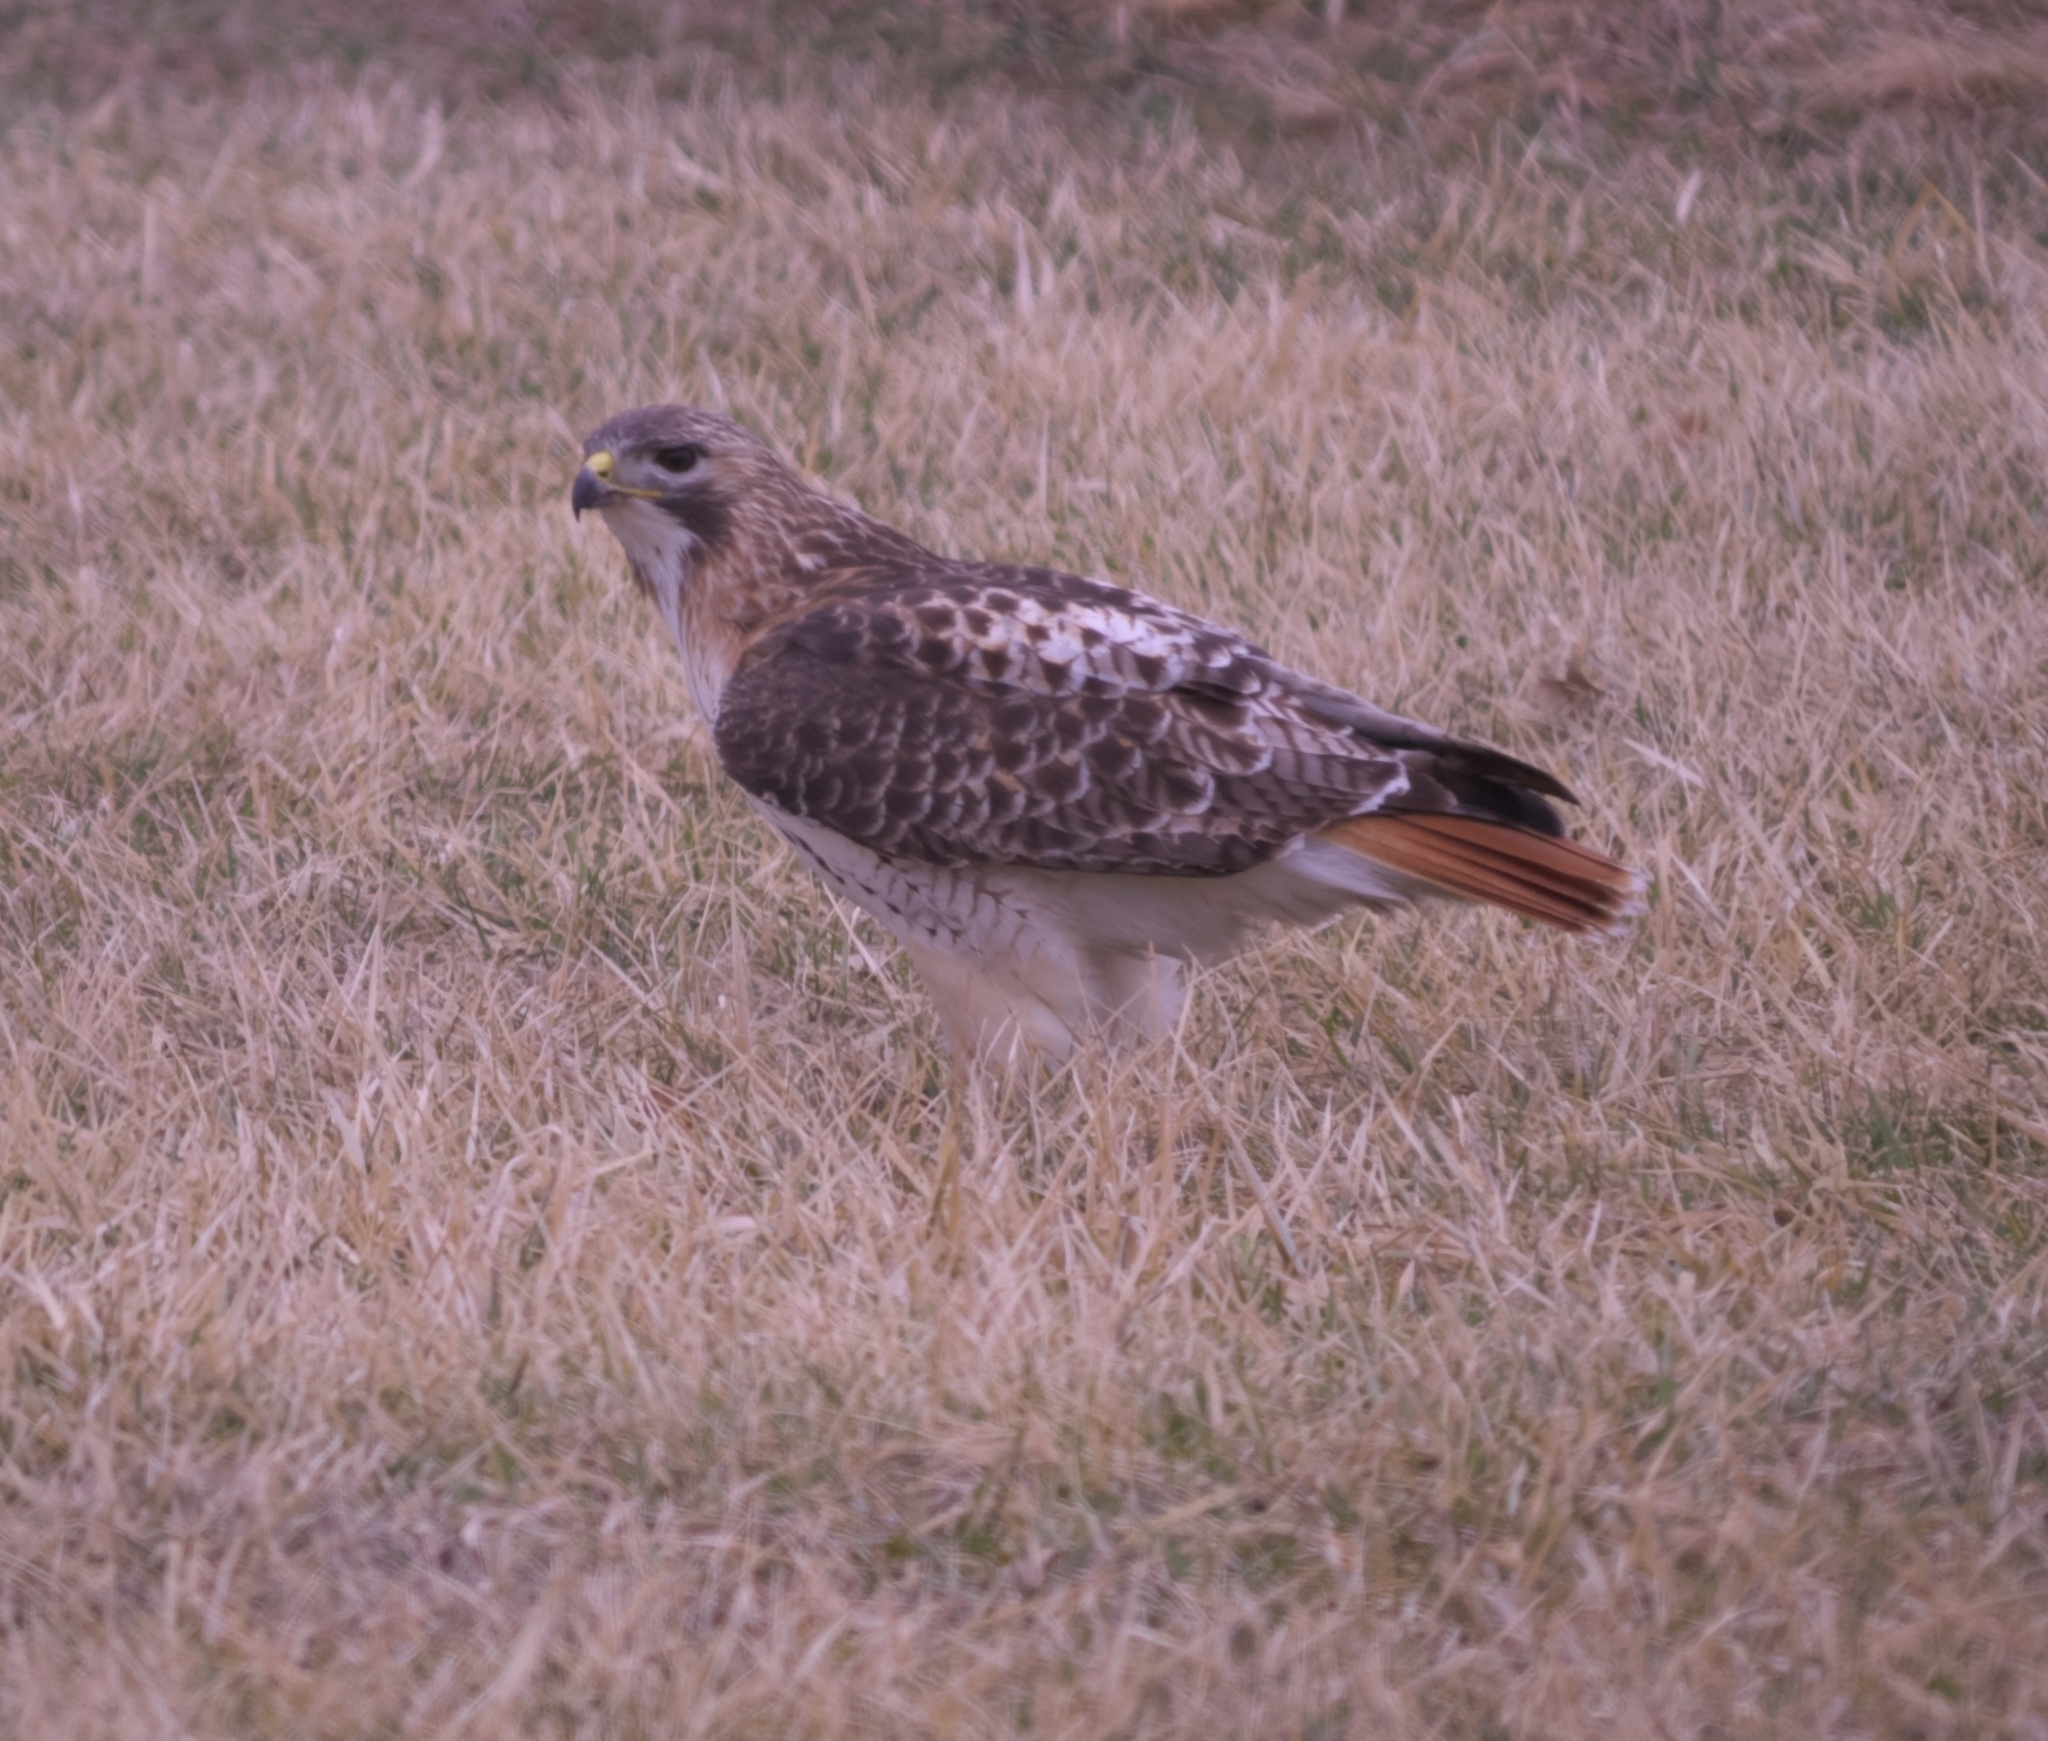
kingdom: Animalia
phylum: Chordata
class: Aves
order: Accipitriformes
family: Accipitridae
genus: Buteo
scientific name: Buteo jamaicensis
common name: Red-tailed hawk
